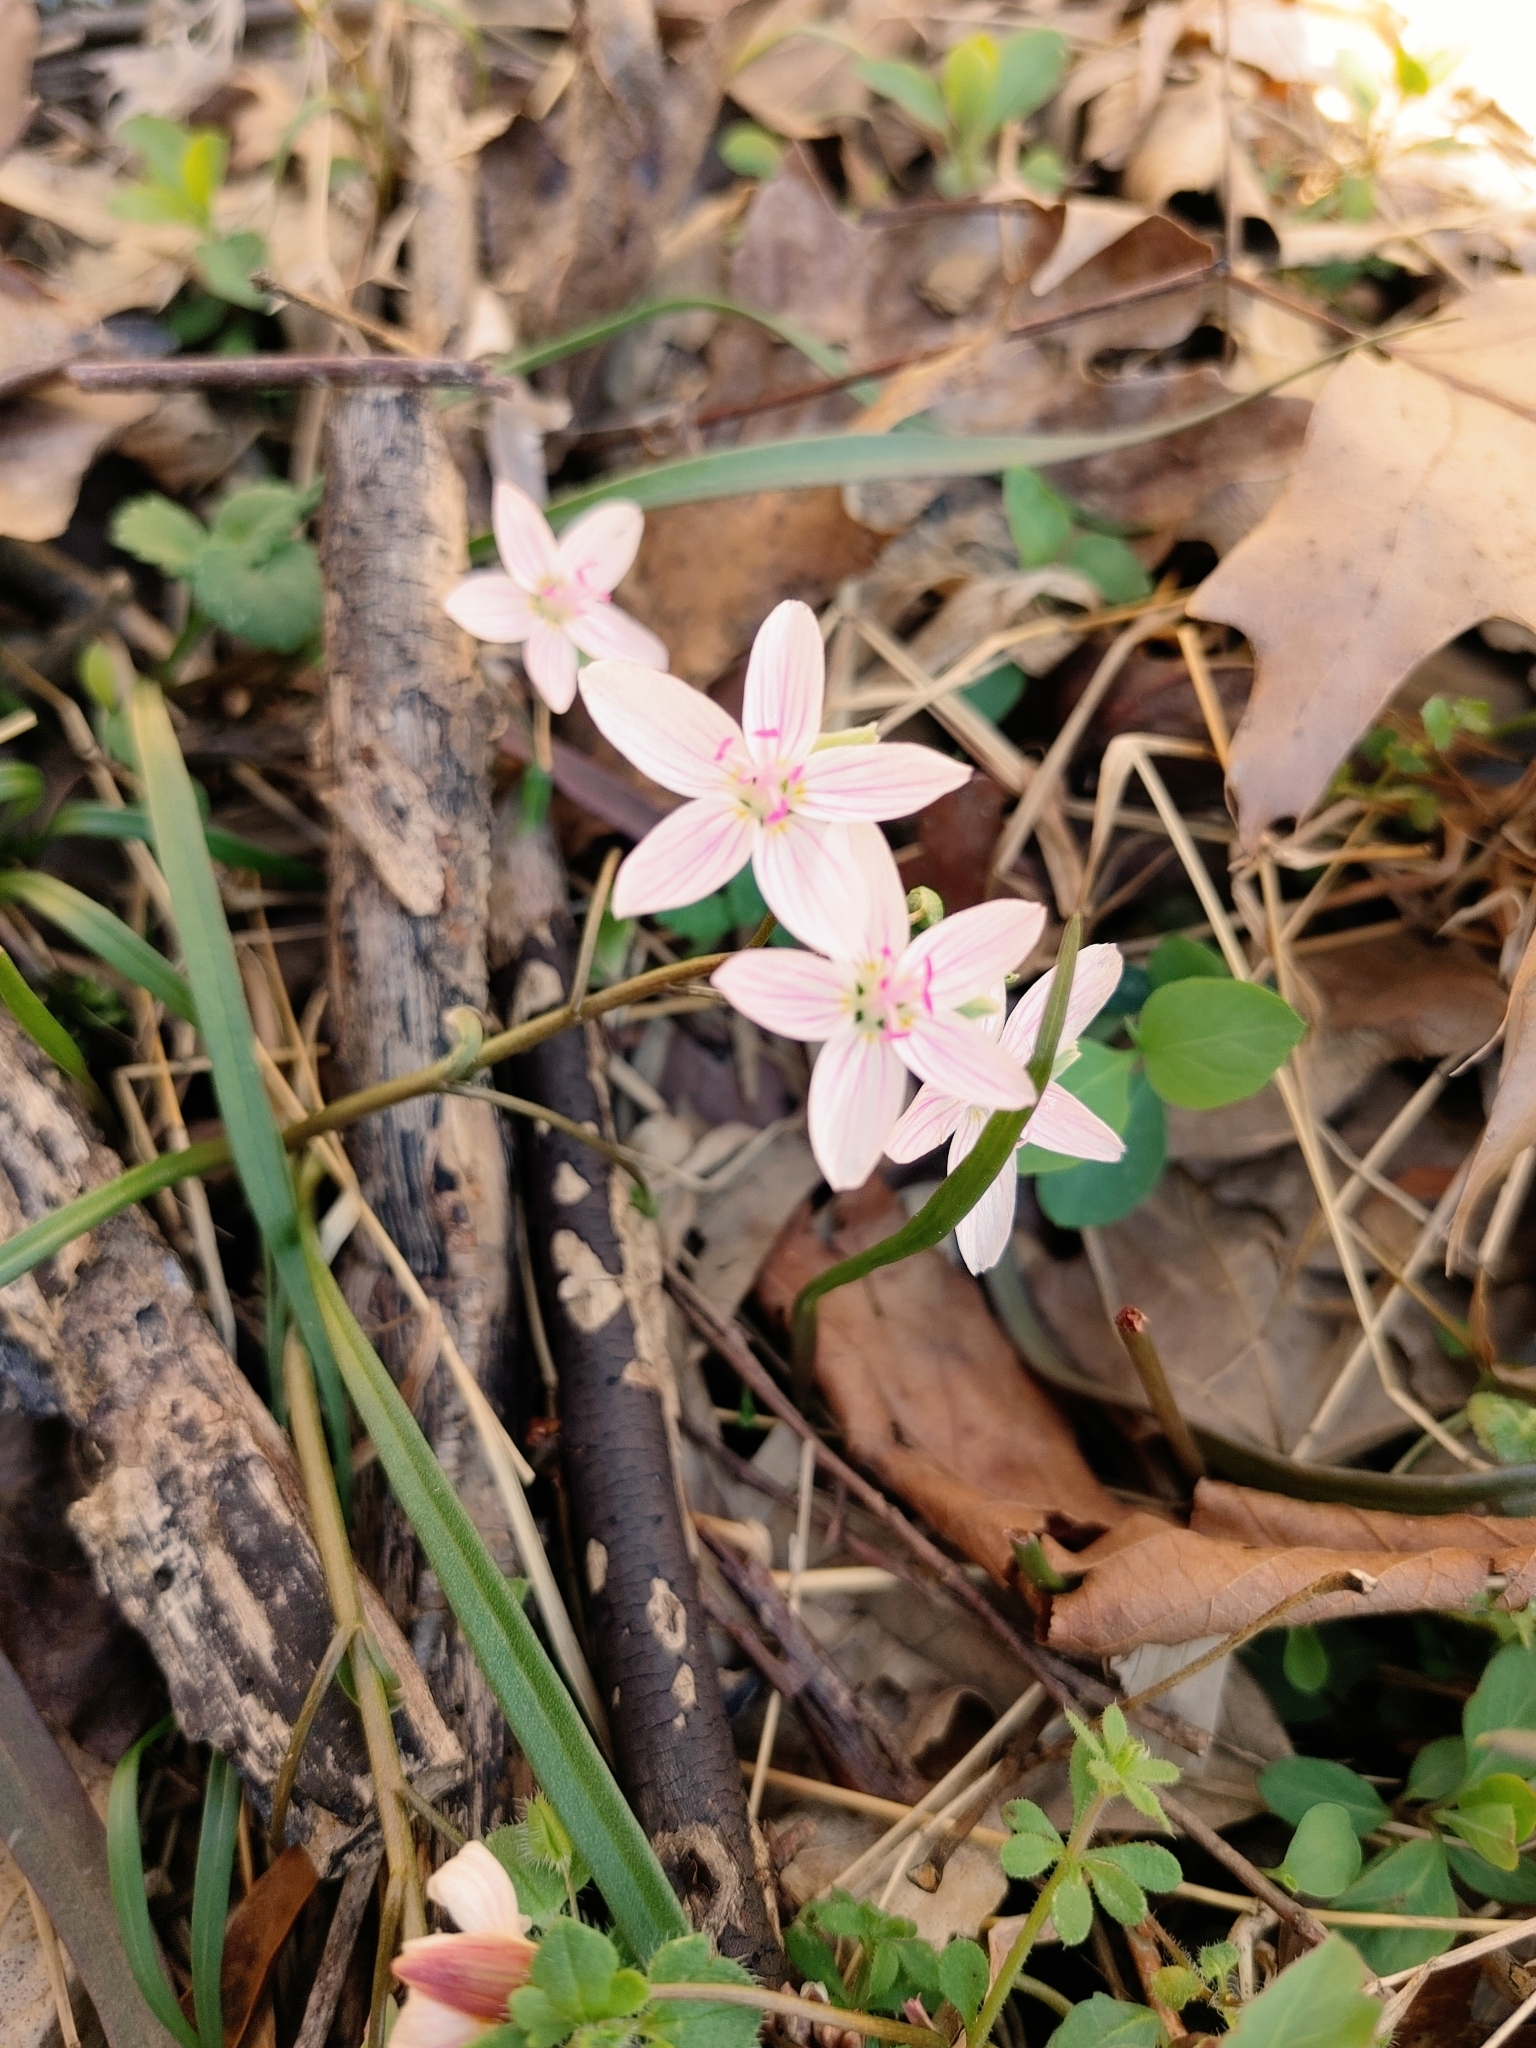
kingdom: Plantae
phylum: Tracheophyta
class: Magnoliopsida
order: Caryophyllales
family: Montiaceae
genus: Claytonia
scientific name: Claytonia virginica
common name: Virginia springbeauty
